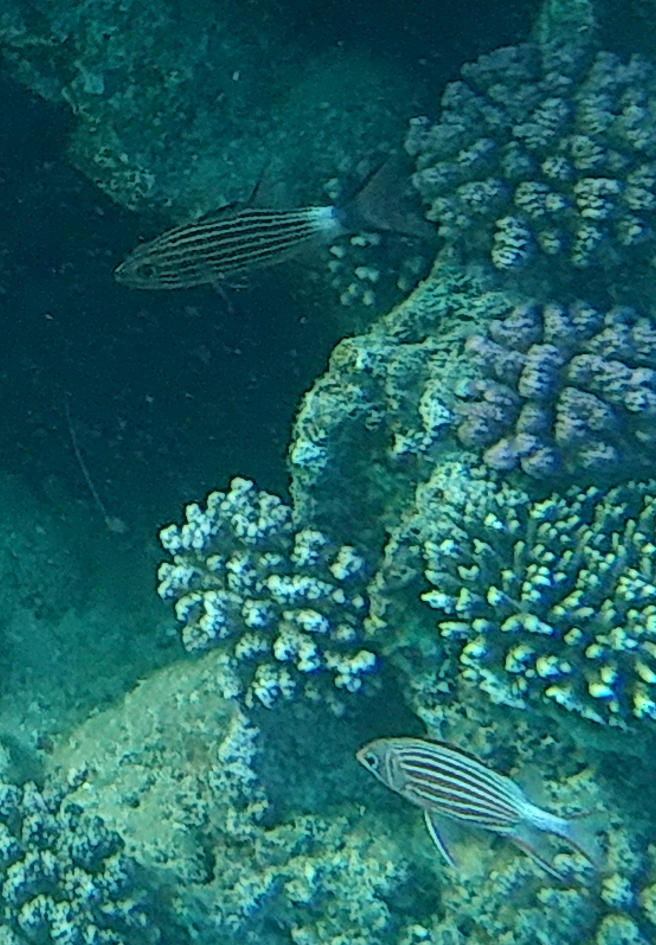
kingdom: Animalia
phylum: Chordata
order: Beryciformes
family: Holocentridae
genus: Sargocentron
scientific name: Sargocentron diadema
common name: Crown squirrelfish
